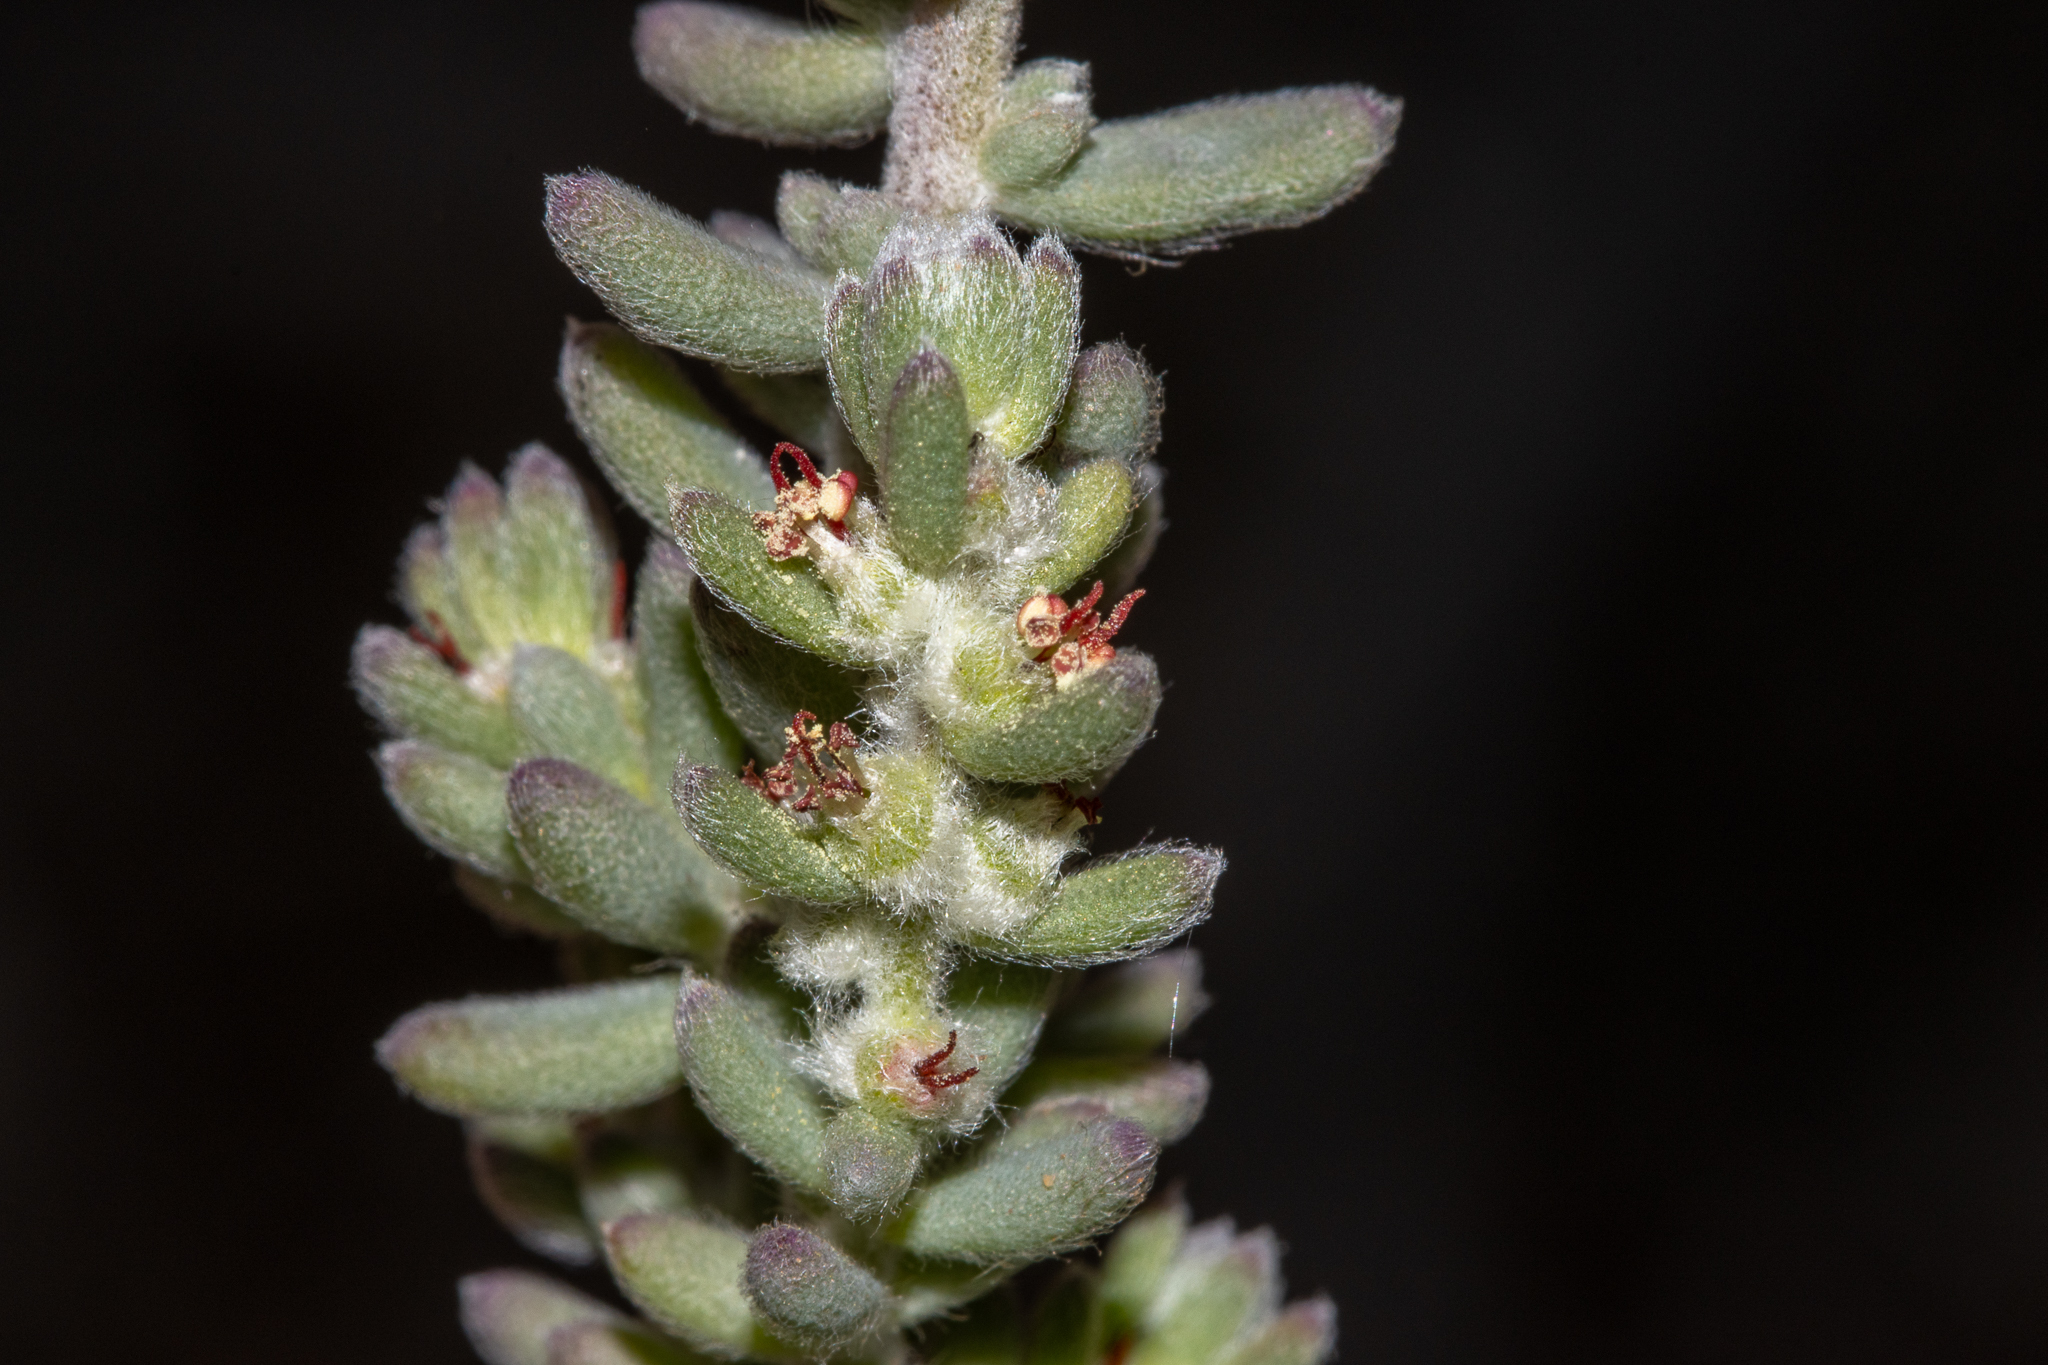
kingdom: Plantae
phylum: Tracheophyta
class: Magnoliopsida
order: Caryophyllales
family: Amaranthaceae
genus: Maireana
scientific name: Maireana trichoptera
